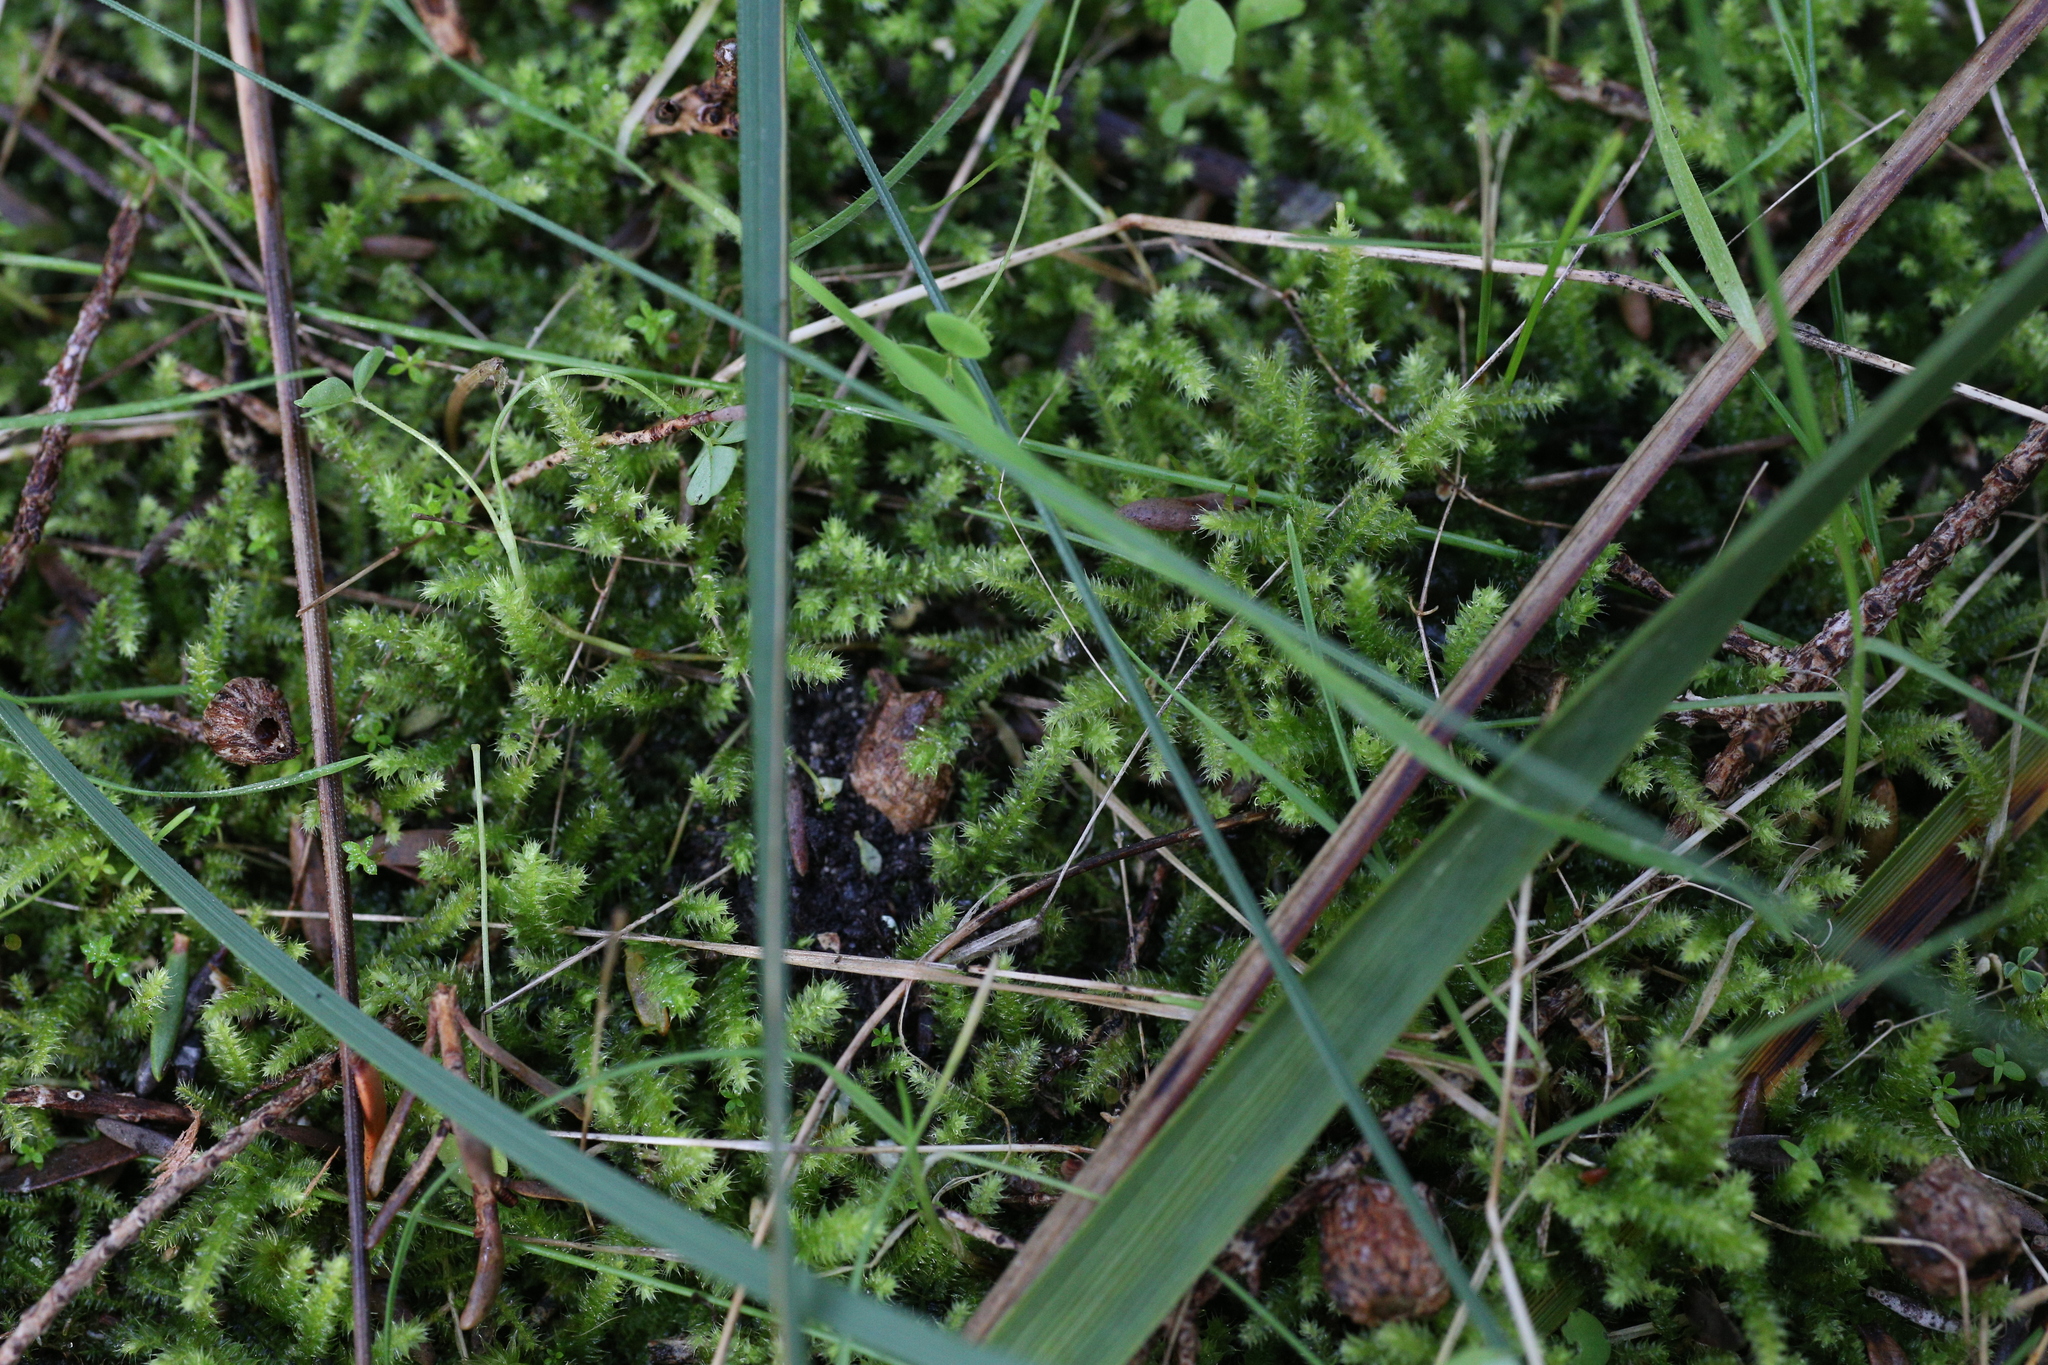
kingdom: Plantae
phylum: Bryophyta
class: Bryopsida
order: Hypnodendrales
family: Racopilaceae
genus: Racopilum
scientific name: Racopilum cuspidigerum
